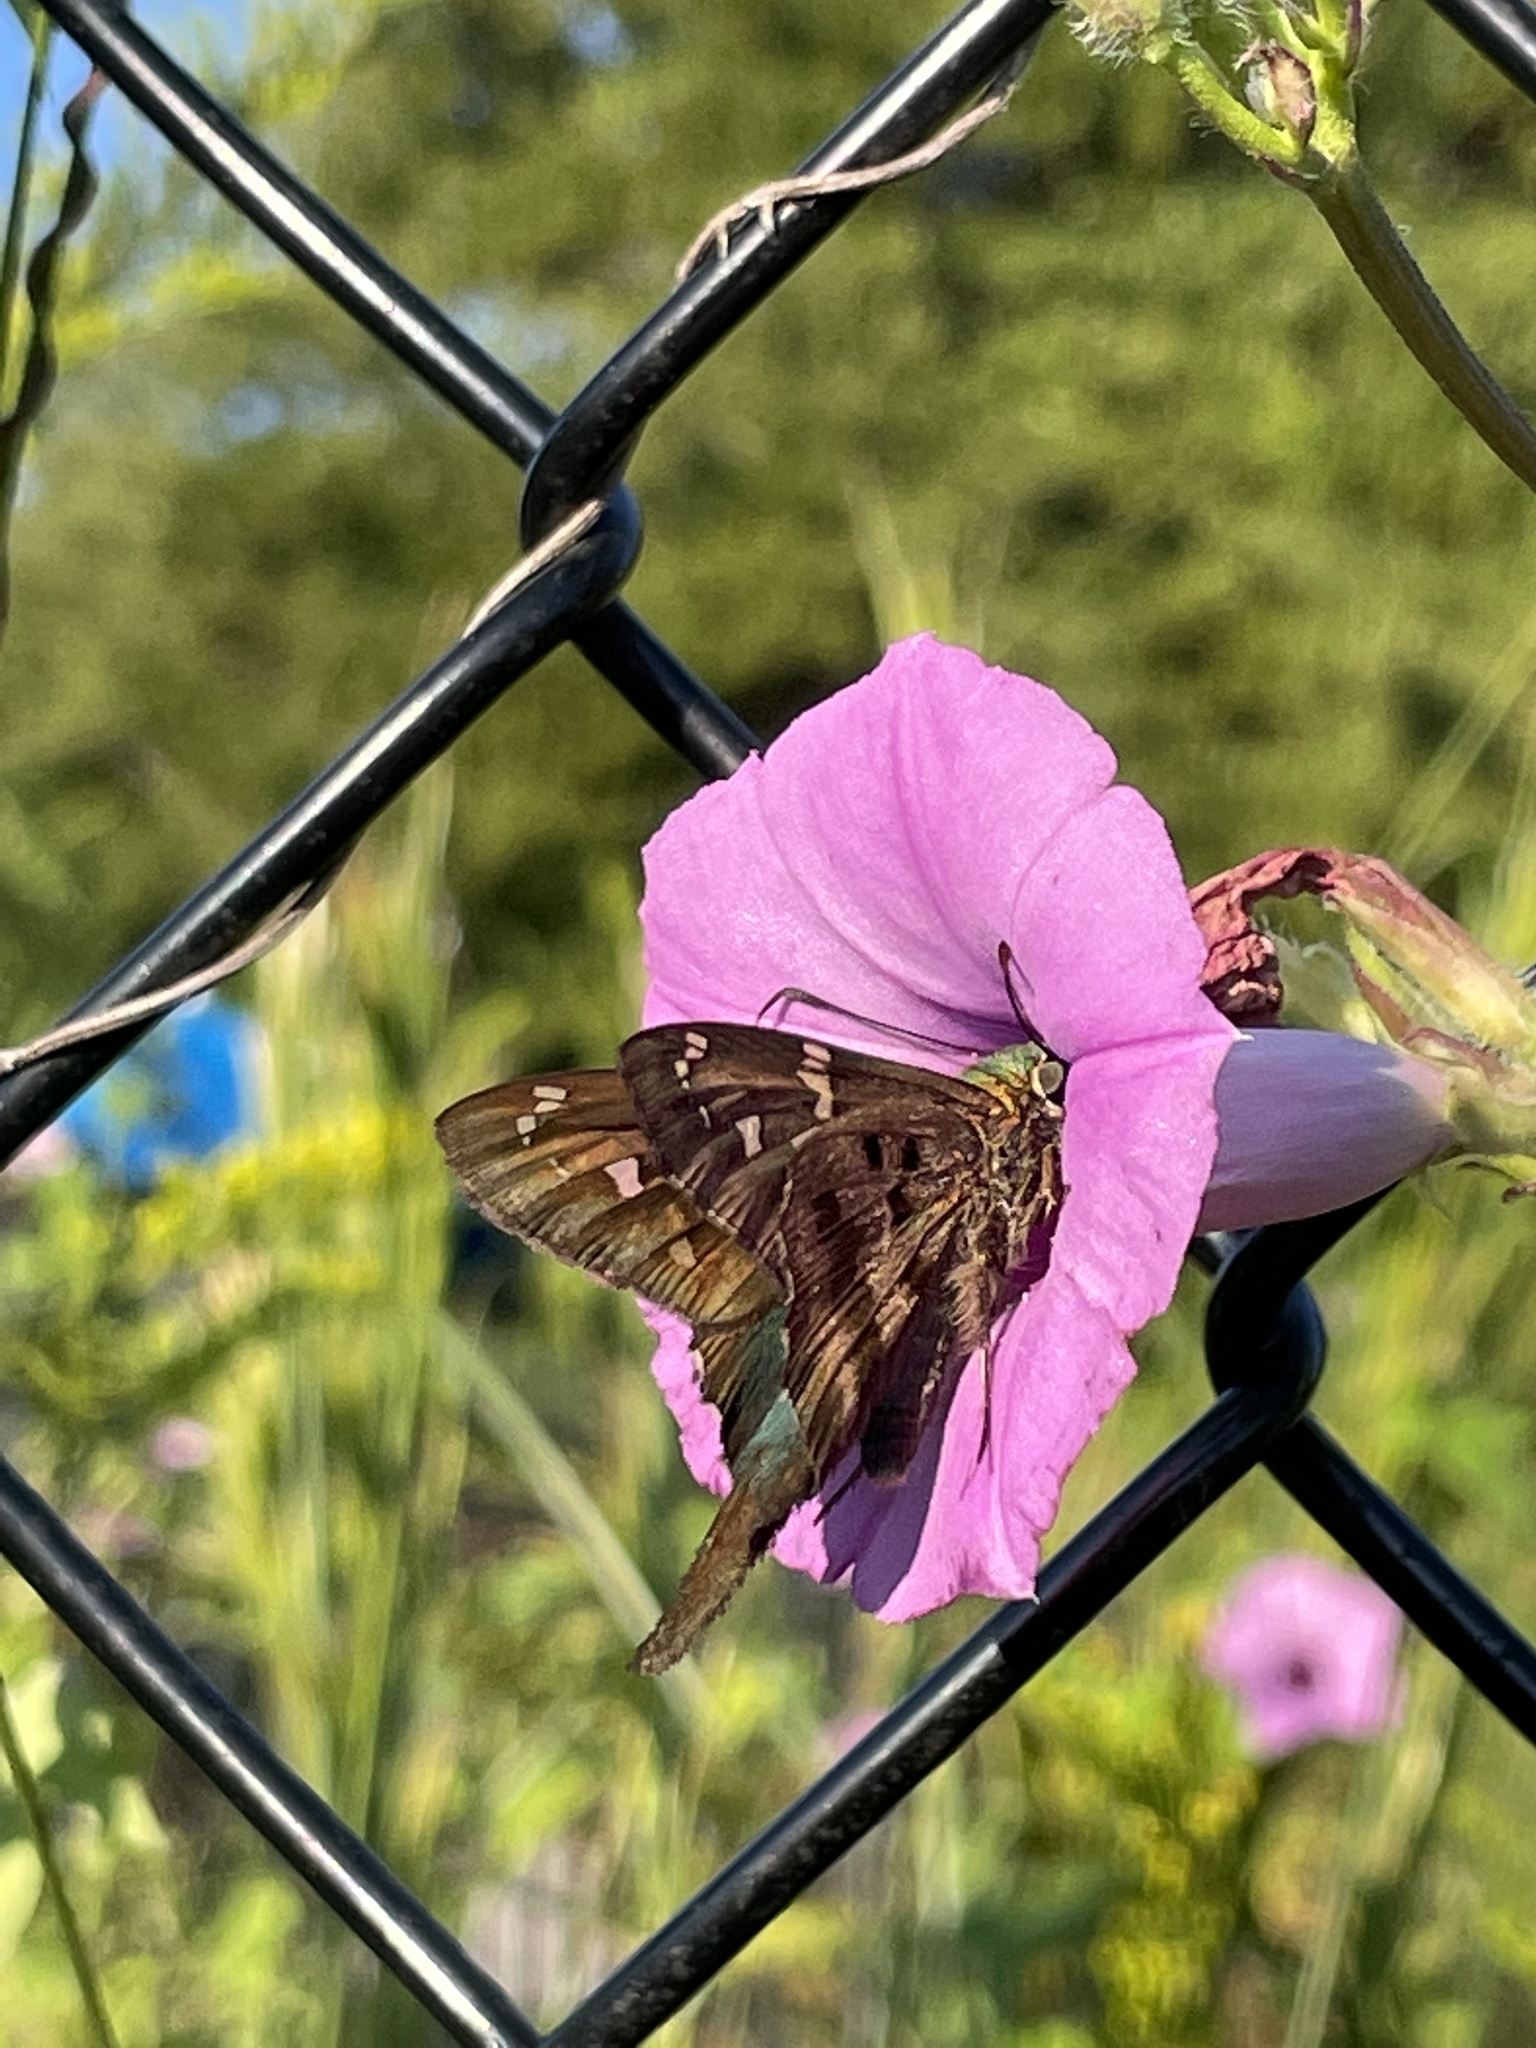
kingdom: Animalia
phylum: Arthropoda
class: Insecta
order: Lepidoptera
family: Hesperiidae
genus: Urbanus
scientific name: Urbanus proteus
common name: Long-tailed skipper
